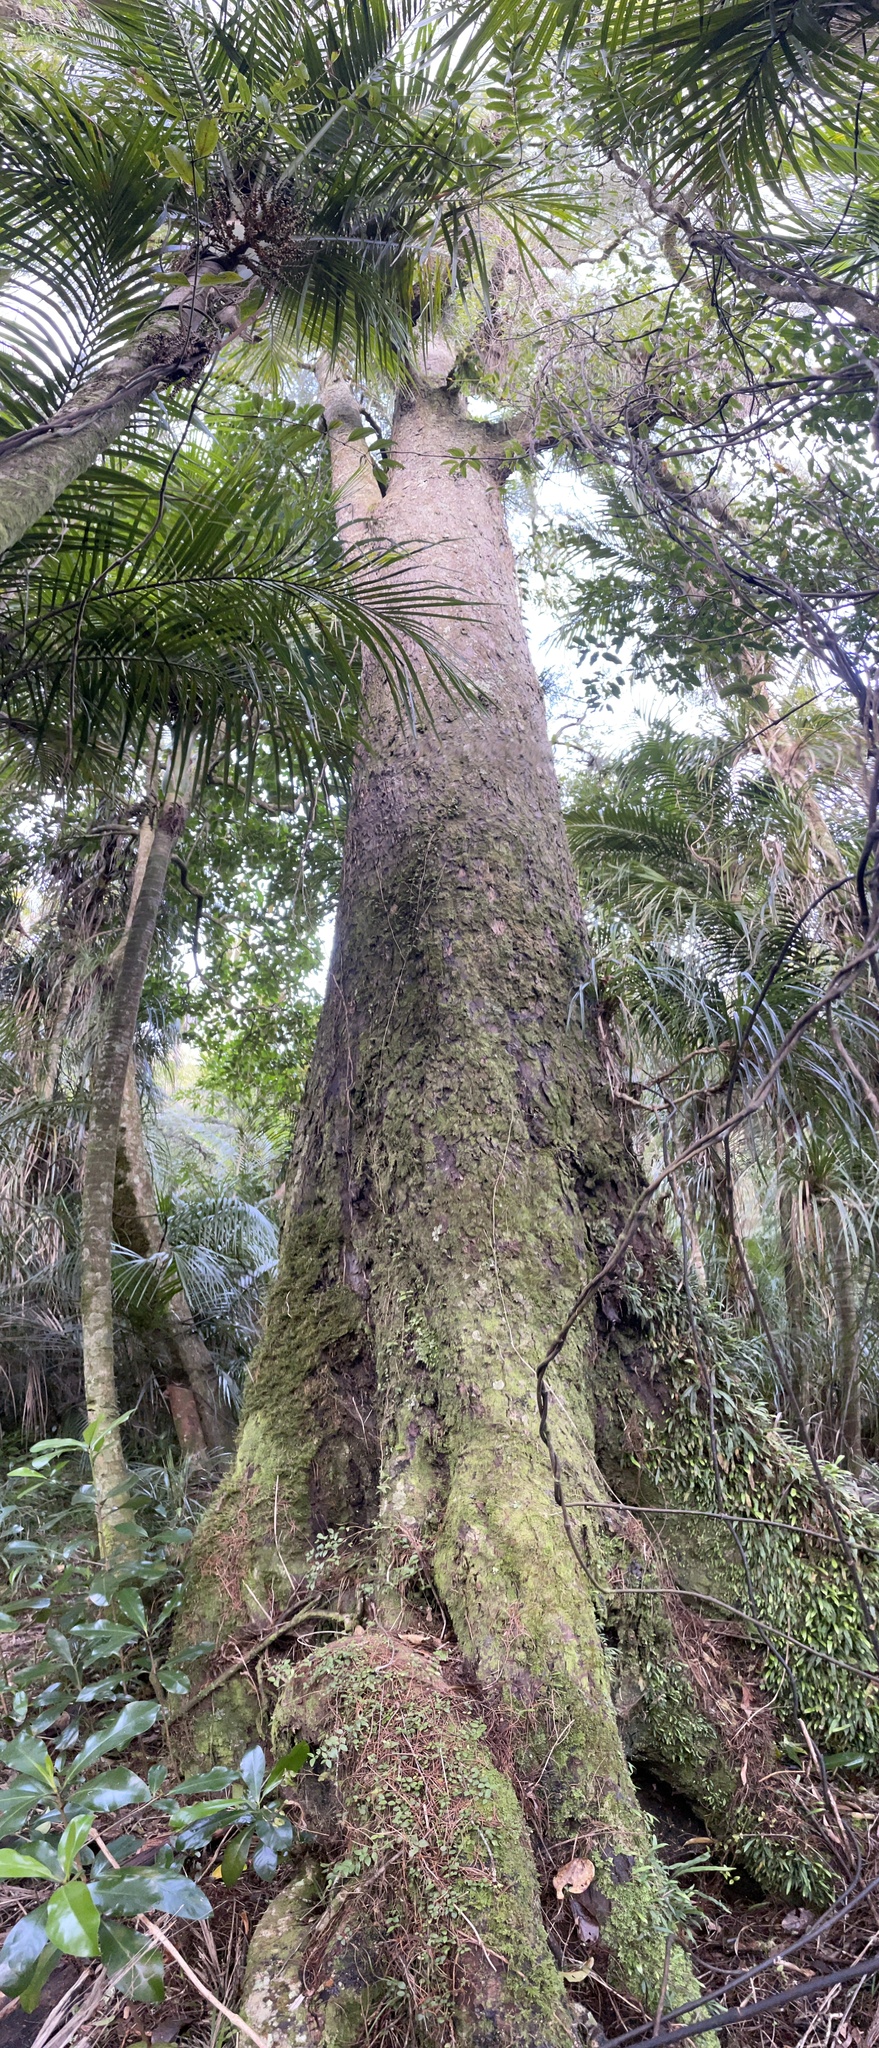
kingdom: Plantae
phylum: Tracheophyta
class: Pinopsida
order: Pinales
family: Podocarpaceae
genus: Dacrycarpus
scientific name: Dacrycarpus dacrydioides
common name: White pine
